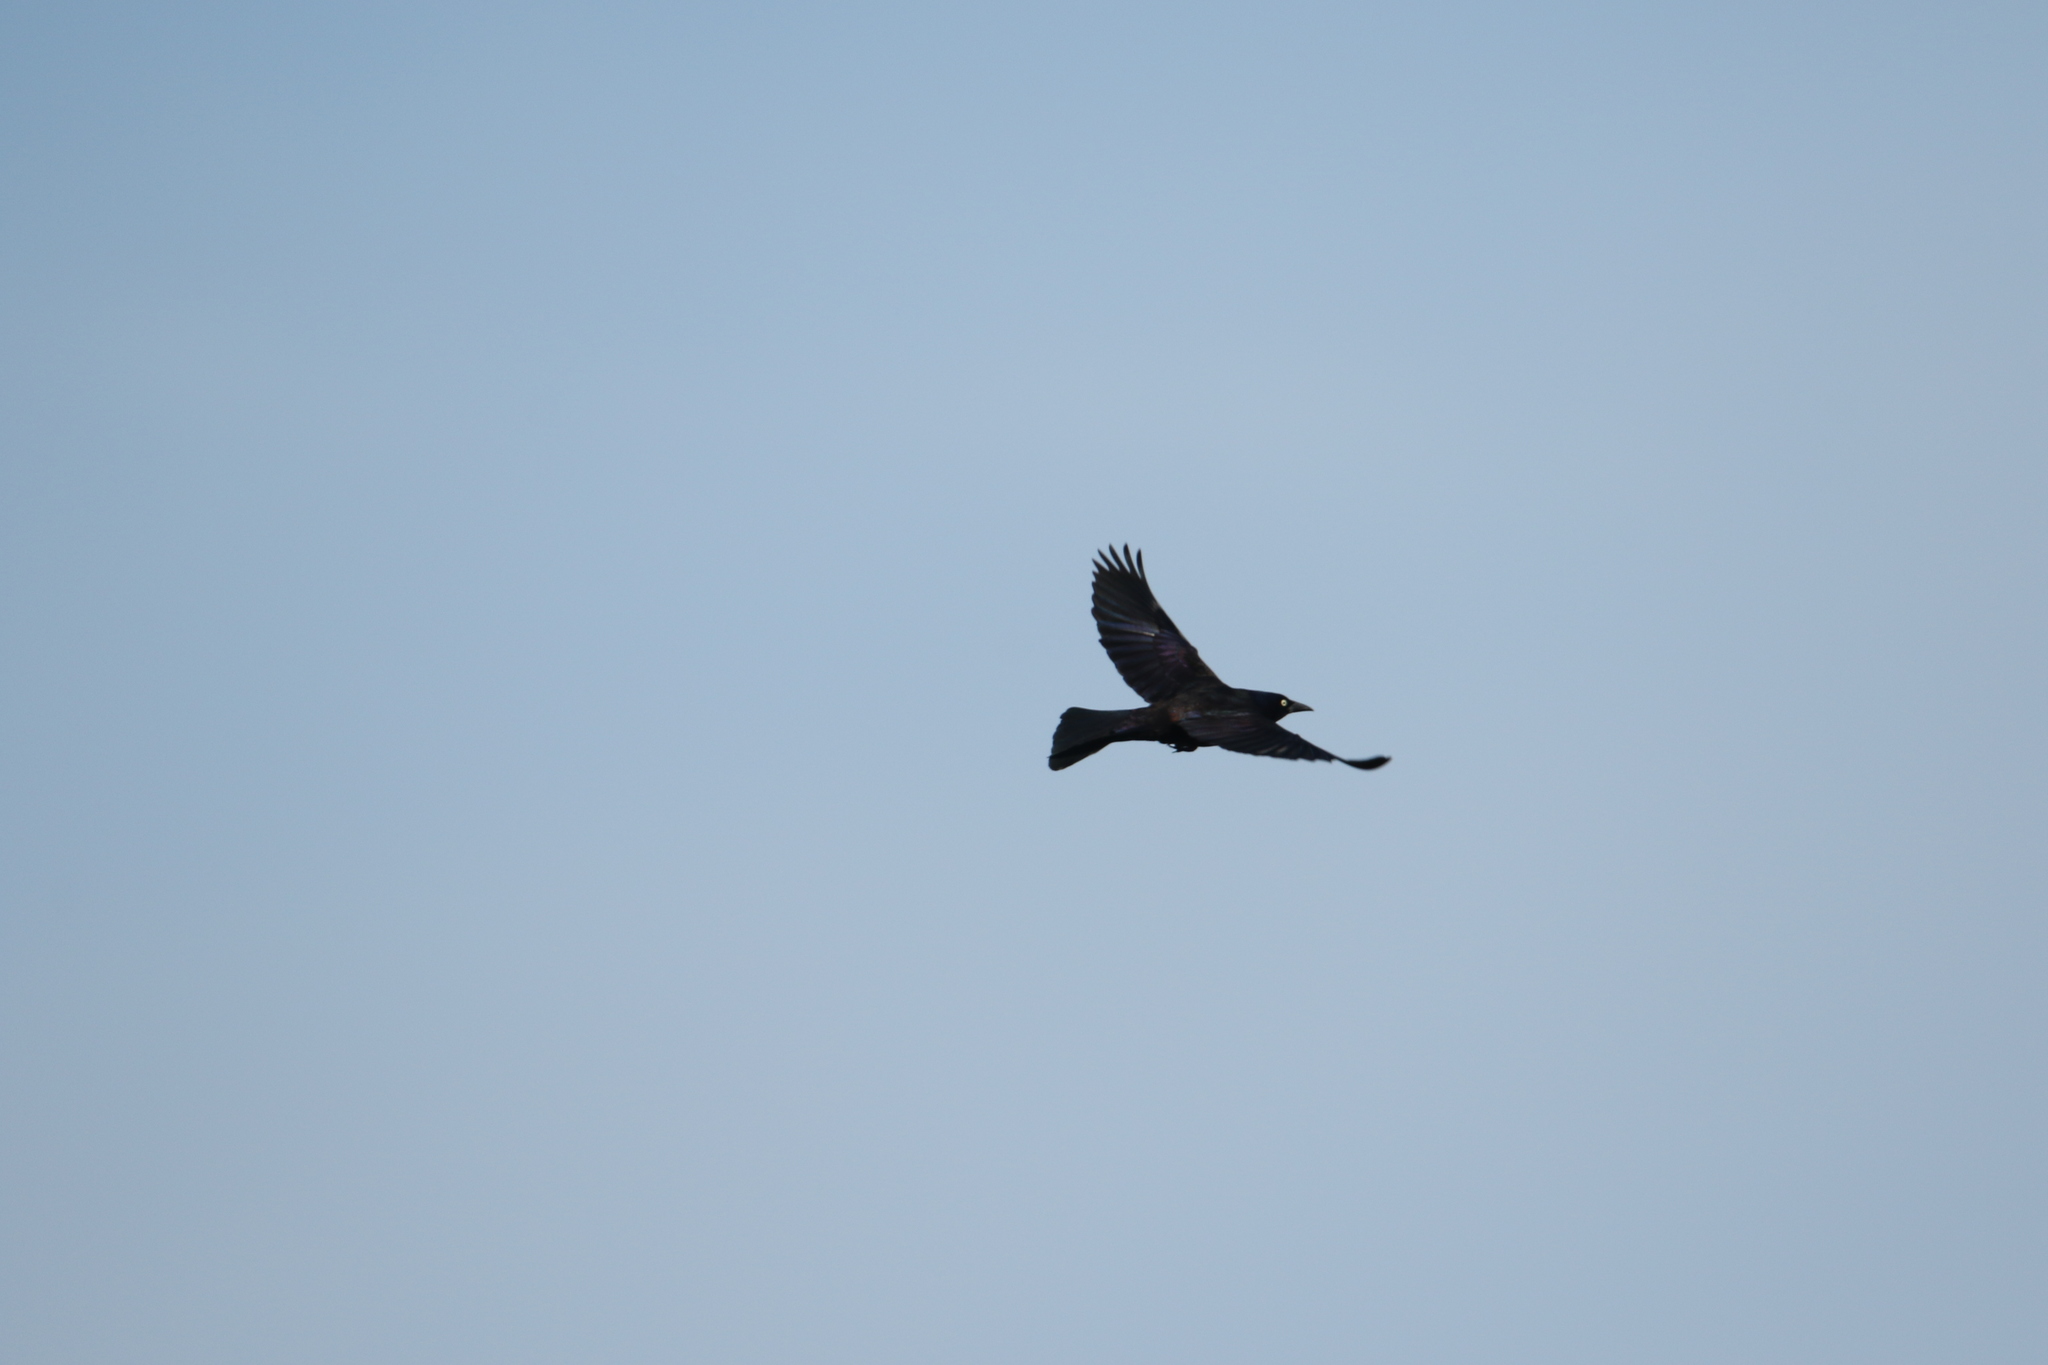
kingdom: Animalia
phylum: Chordata
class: Aves
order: Passeriformes
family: Icteridae
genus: Quiscalus
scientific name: Quiscalus quiscula
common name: Common grackle
